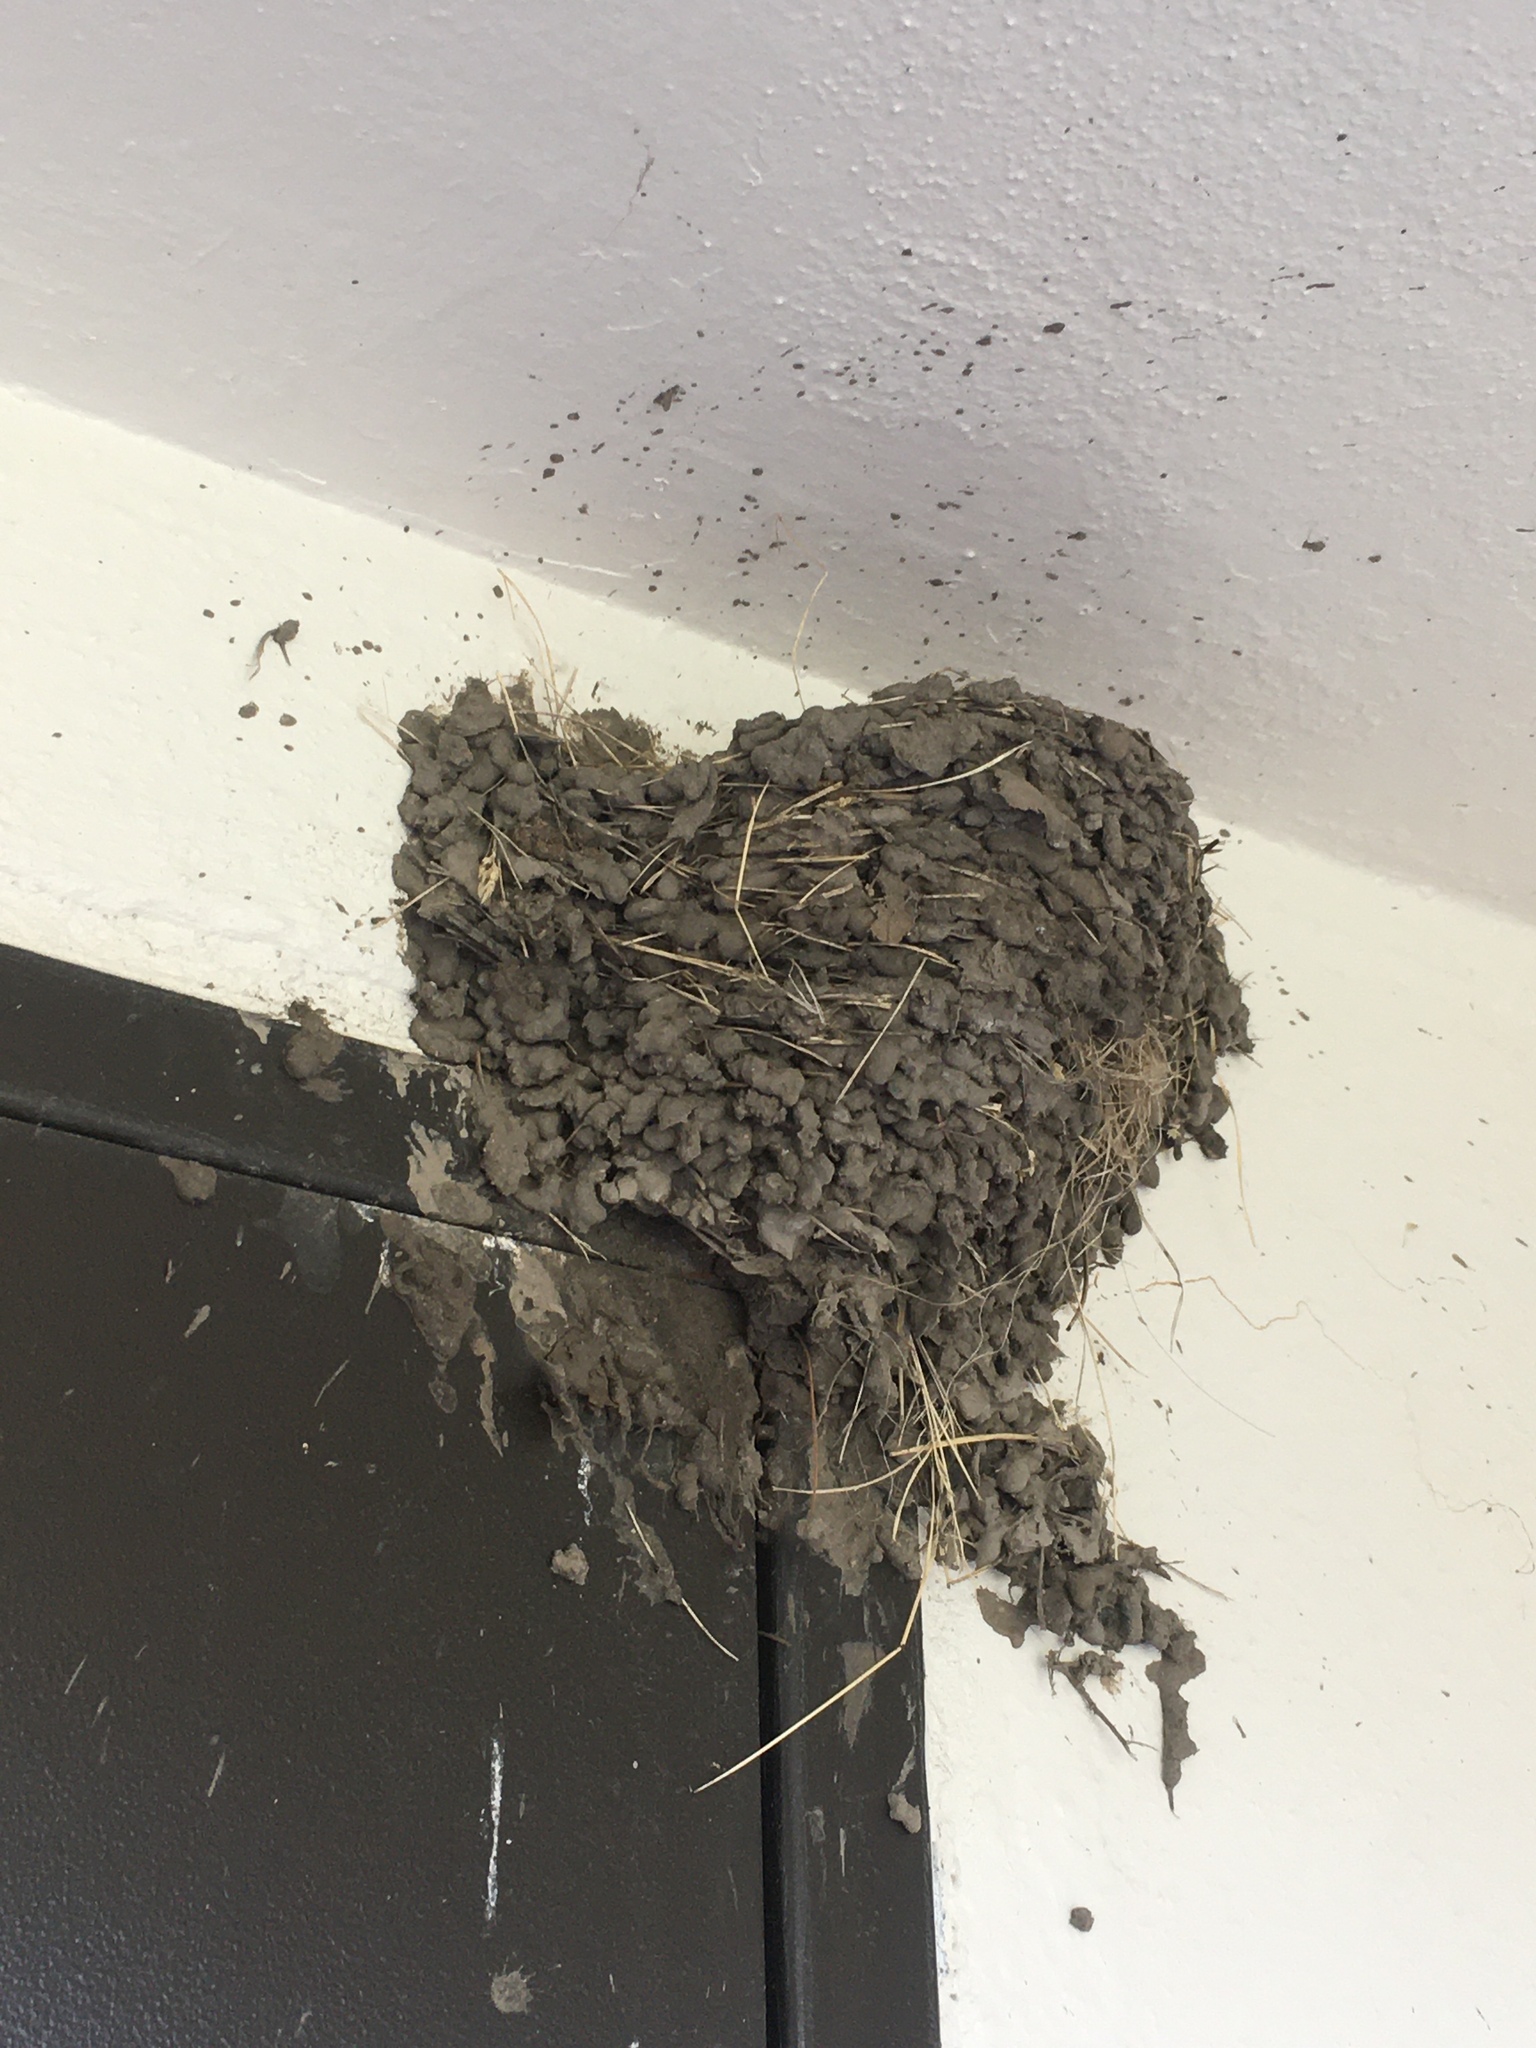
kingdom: Animalia
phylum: Chordata
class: Aves
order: Passeriformes
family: Hirundinidae
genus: Hirundo
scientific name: Hirundo rustica
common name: Barn swallow
